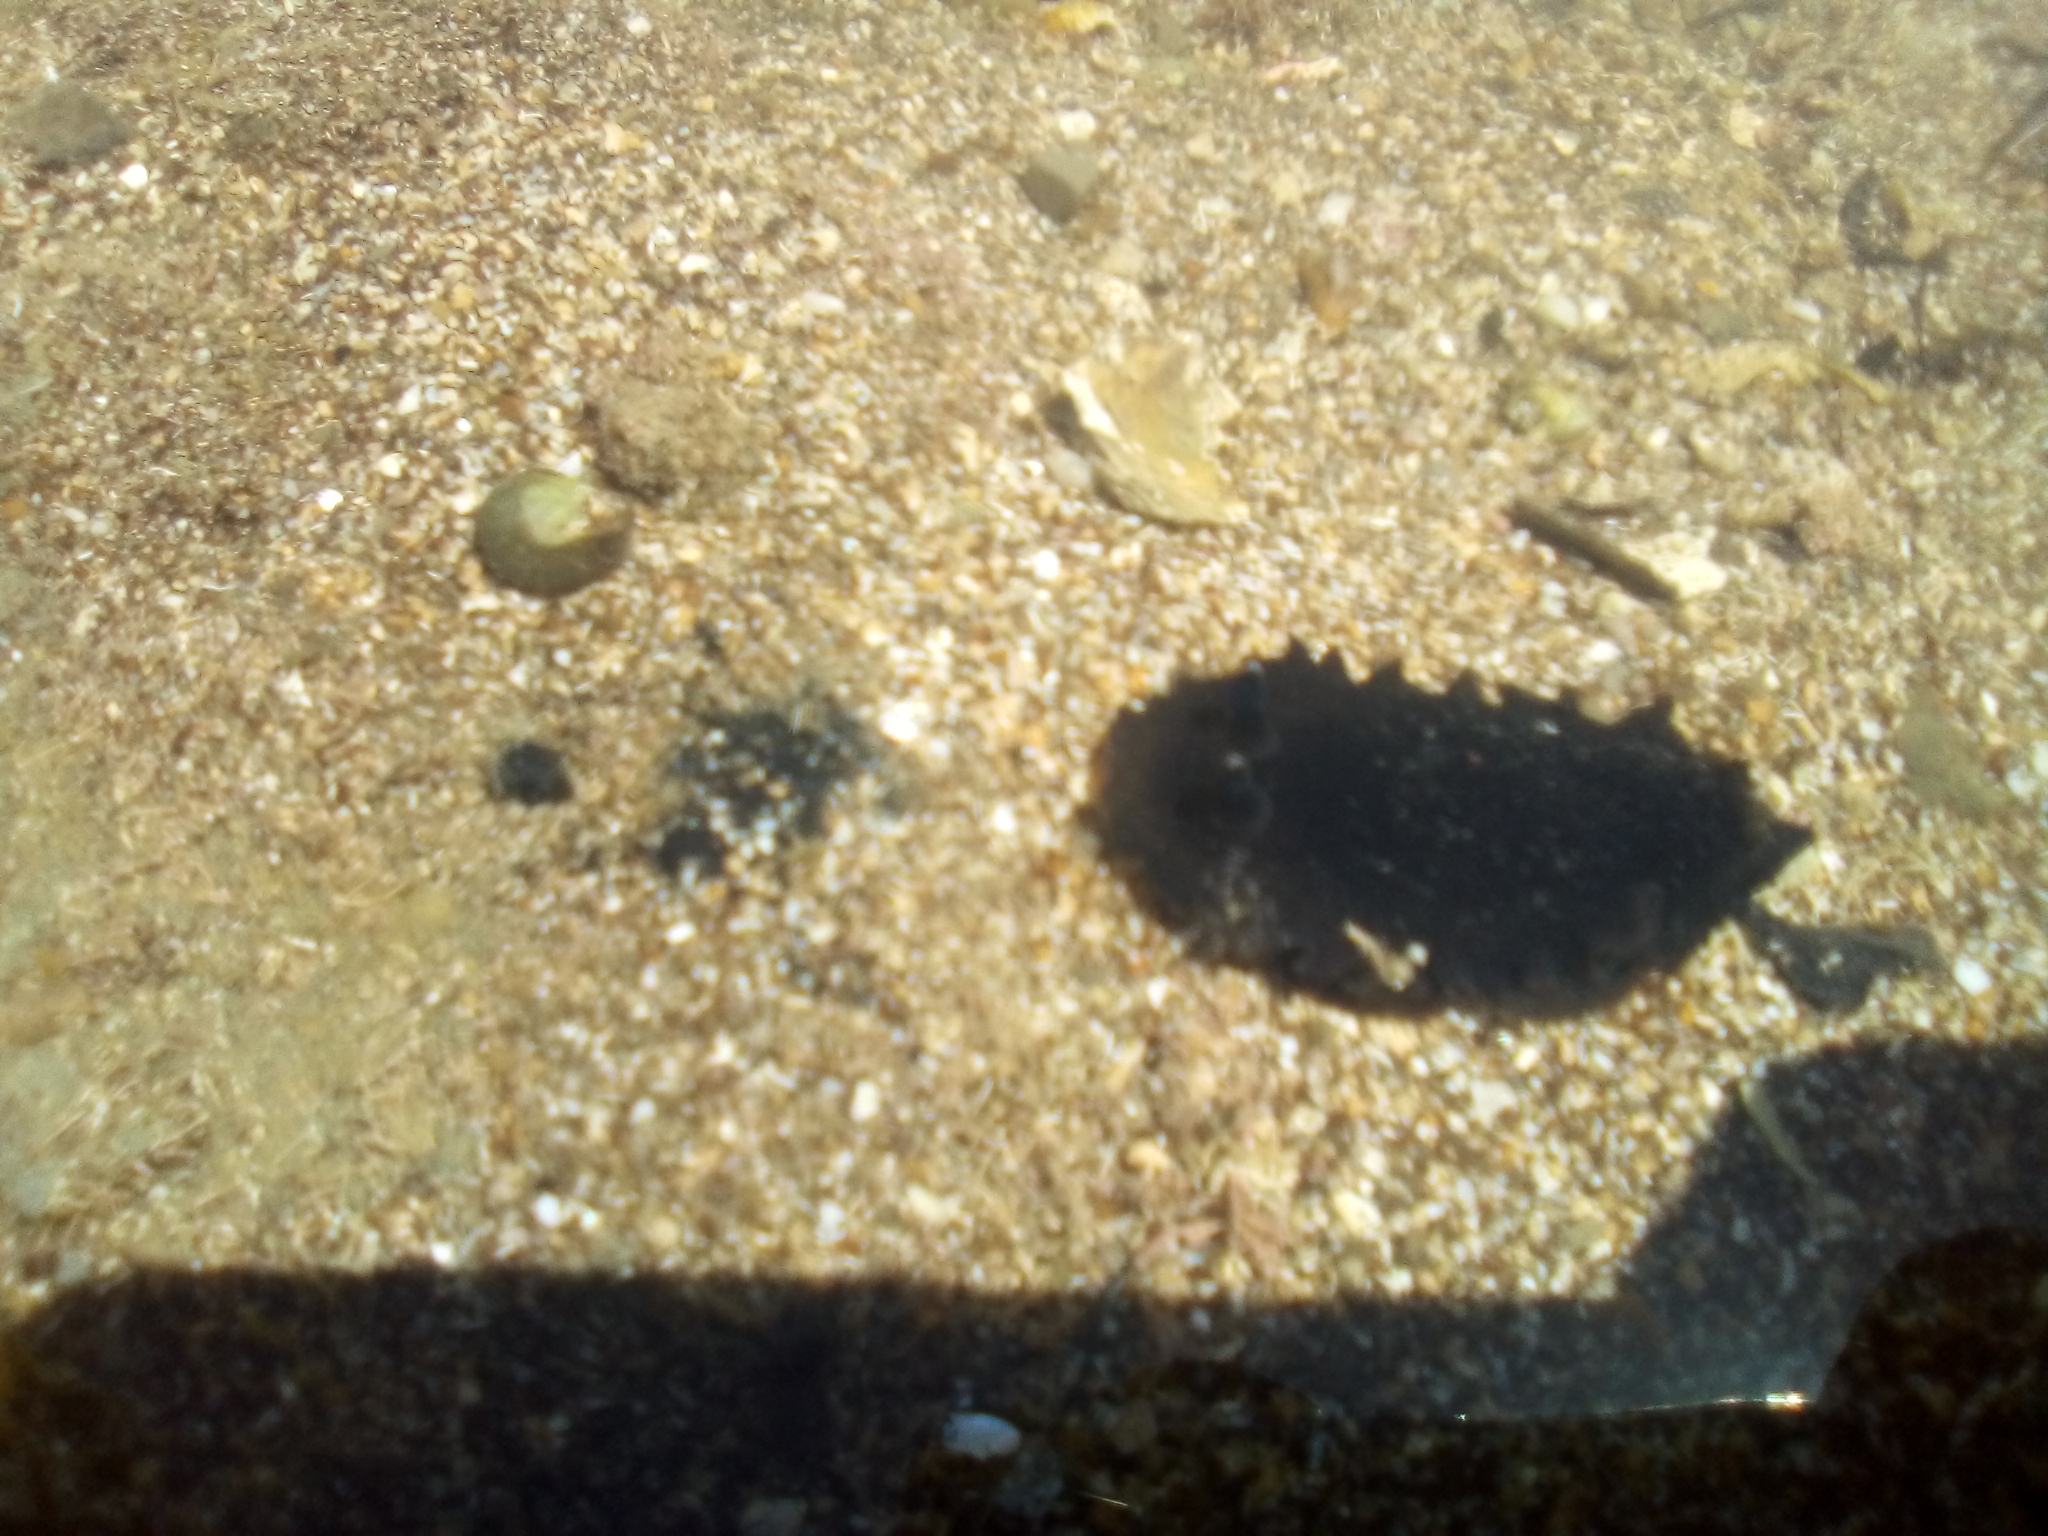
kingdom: Animalia
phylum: Mollusca
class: Gastropoda
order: Nudibranchia
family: Dendrodorididae
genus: Dendrodoris
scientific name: Dendrodoris nigra
